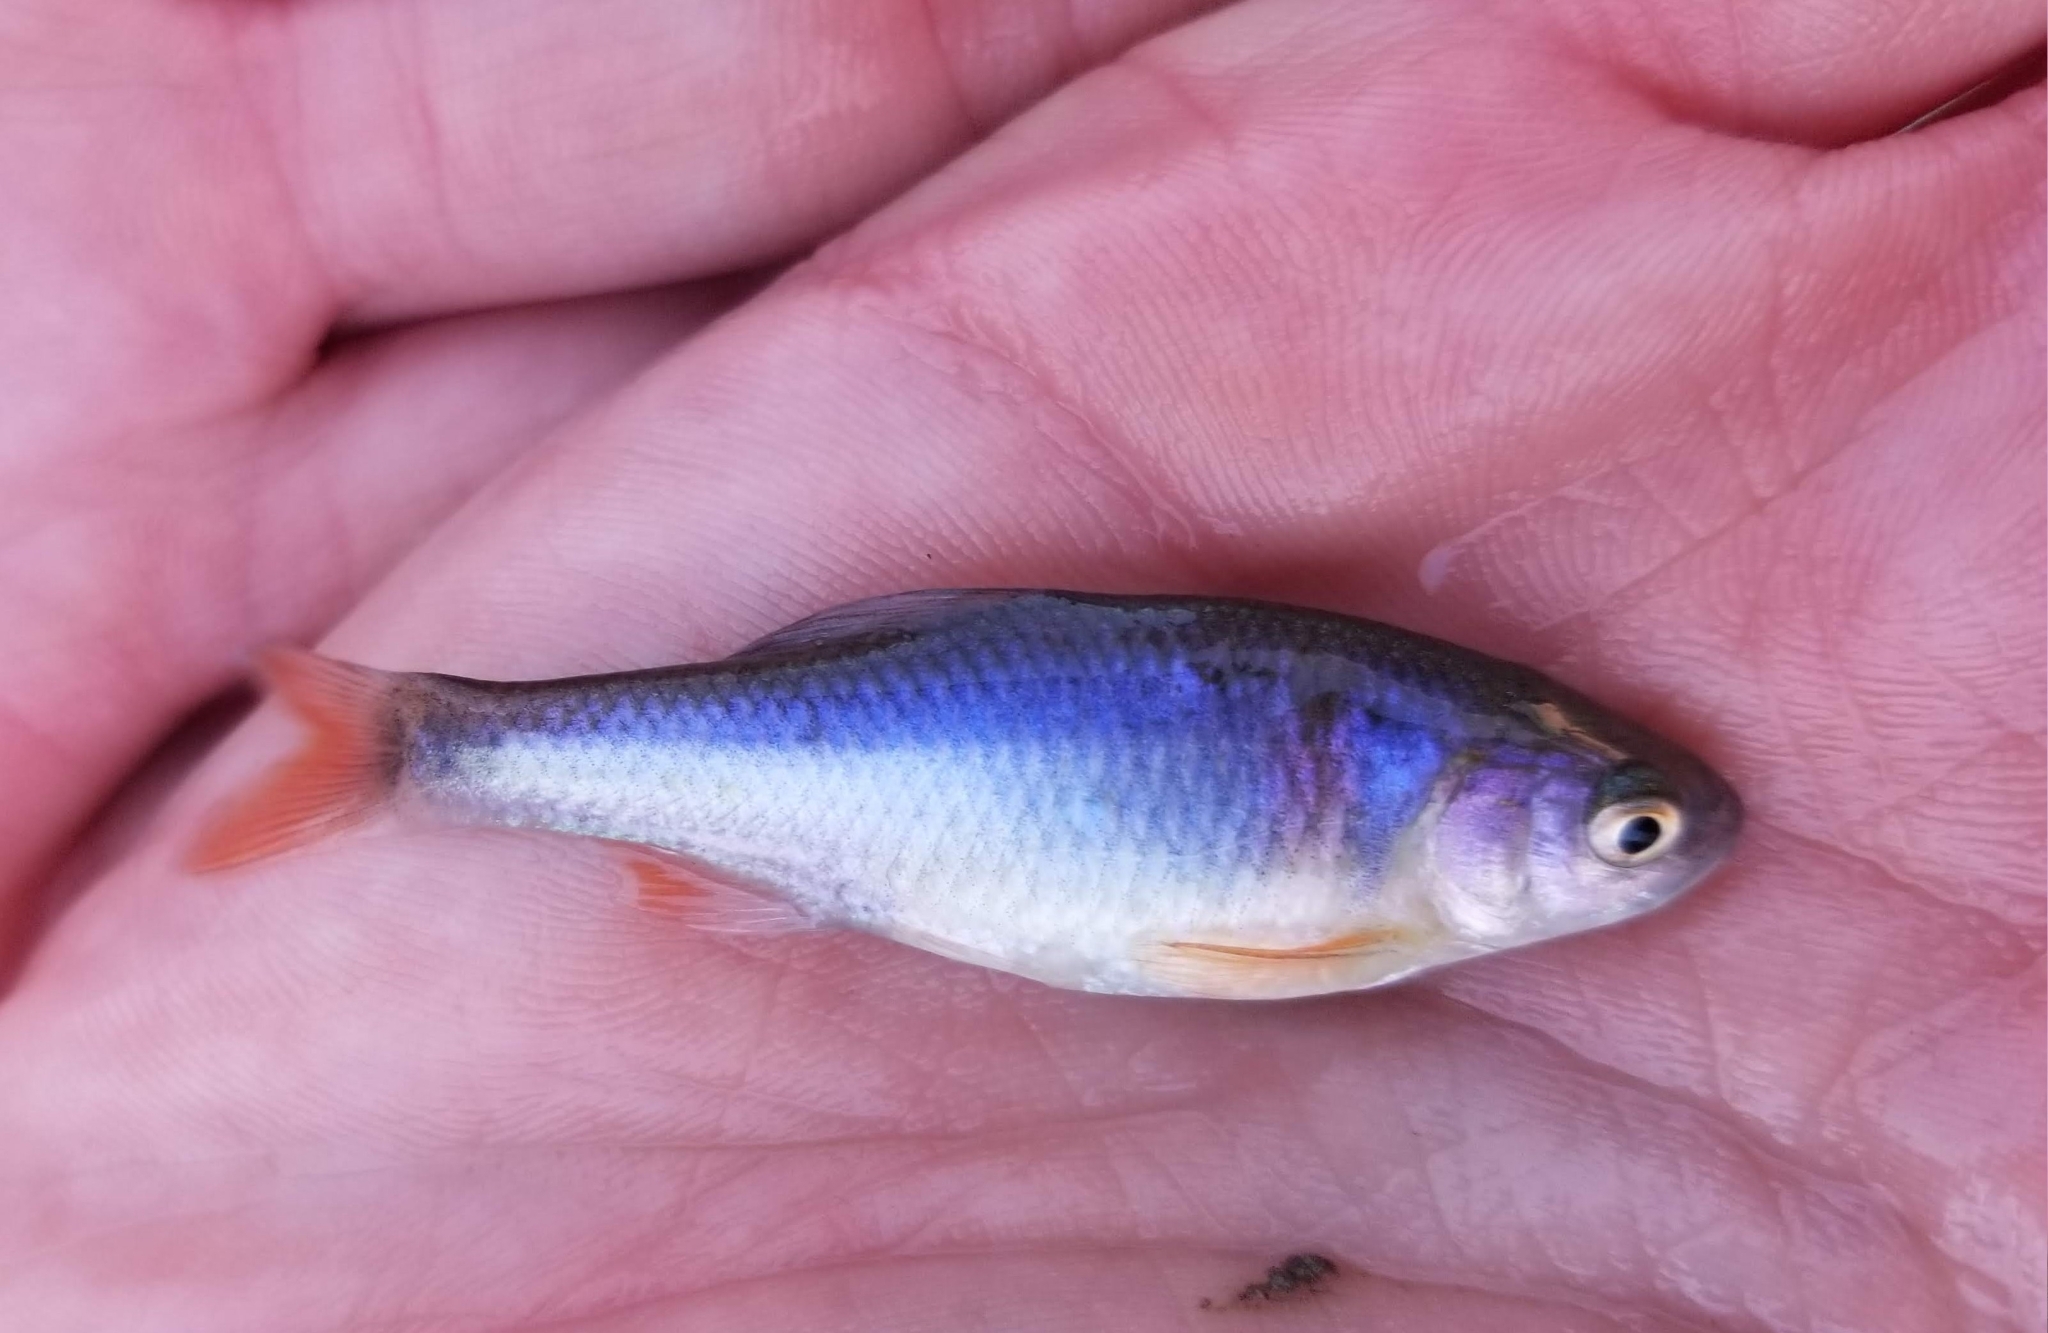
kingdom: Animalia
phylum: Chordata
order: Cypriniformes
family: Cyprinidae
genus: Cyprinella
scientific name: Cyprinella lutrensis
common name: Red shiner
